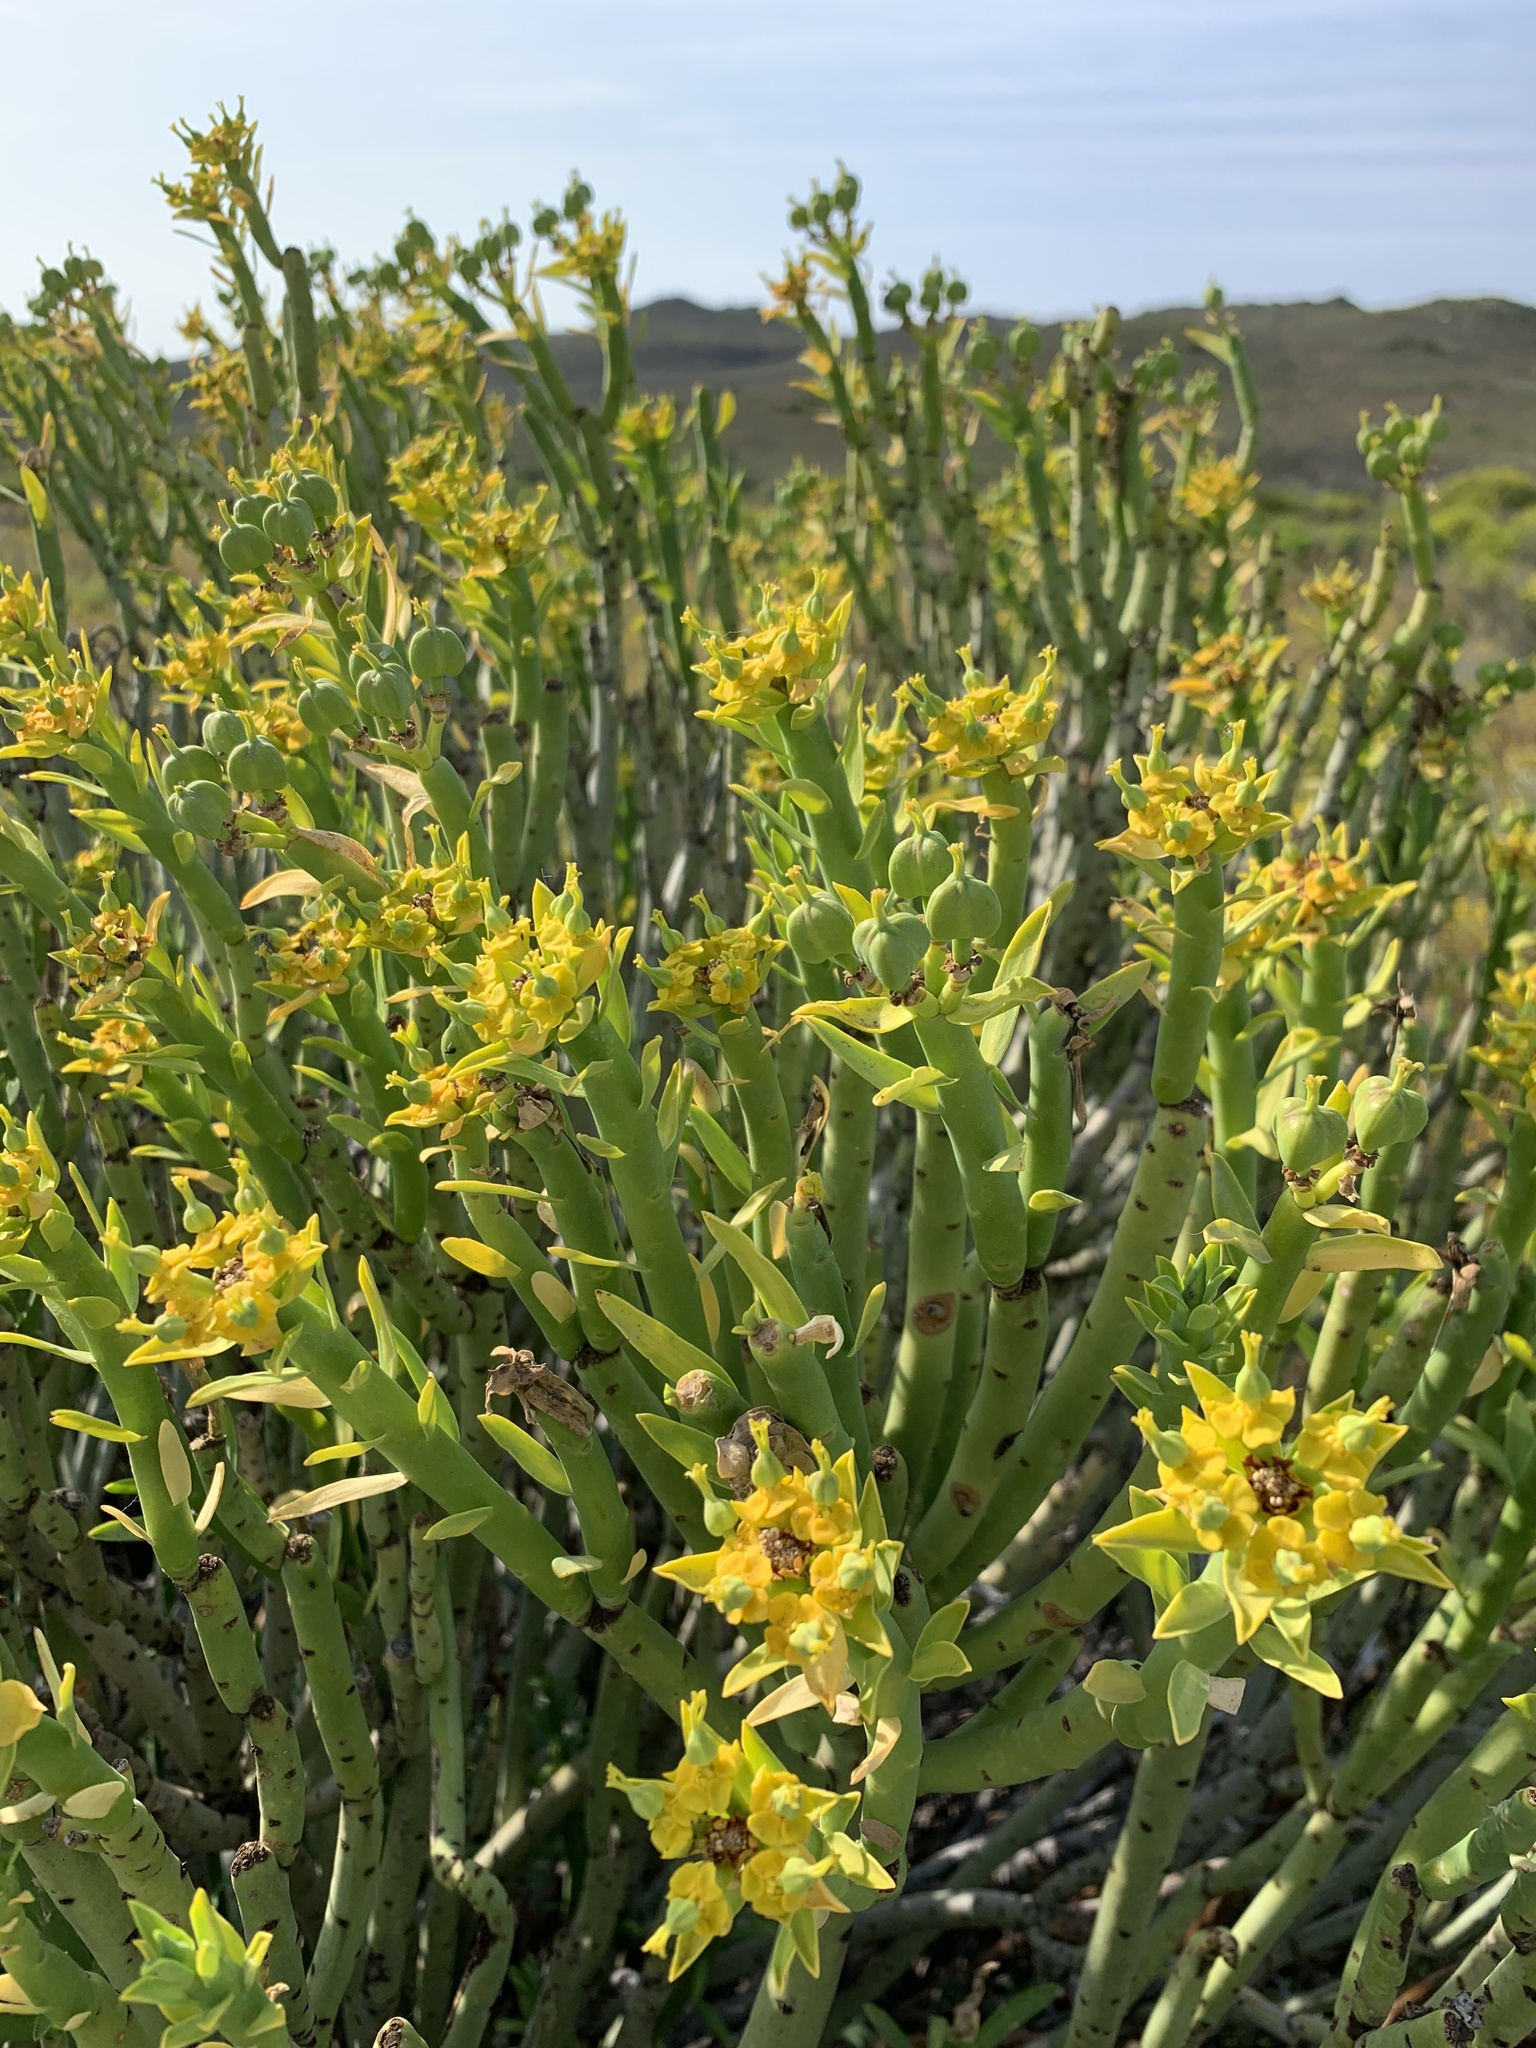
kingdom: Plantae
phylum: Tracheophyta
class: Magnoliopsida
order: Malpighiales
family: Euphorbiaceae
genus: Euphorbia
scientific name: Euphorbia mauritanica
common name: Jackal's-food
